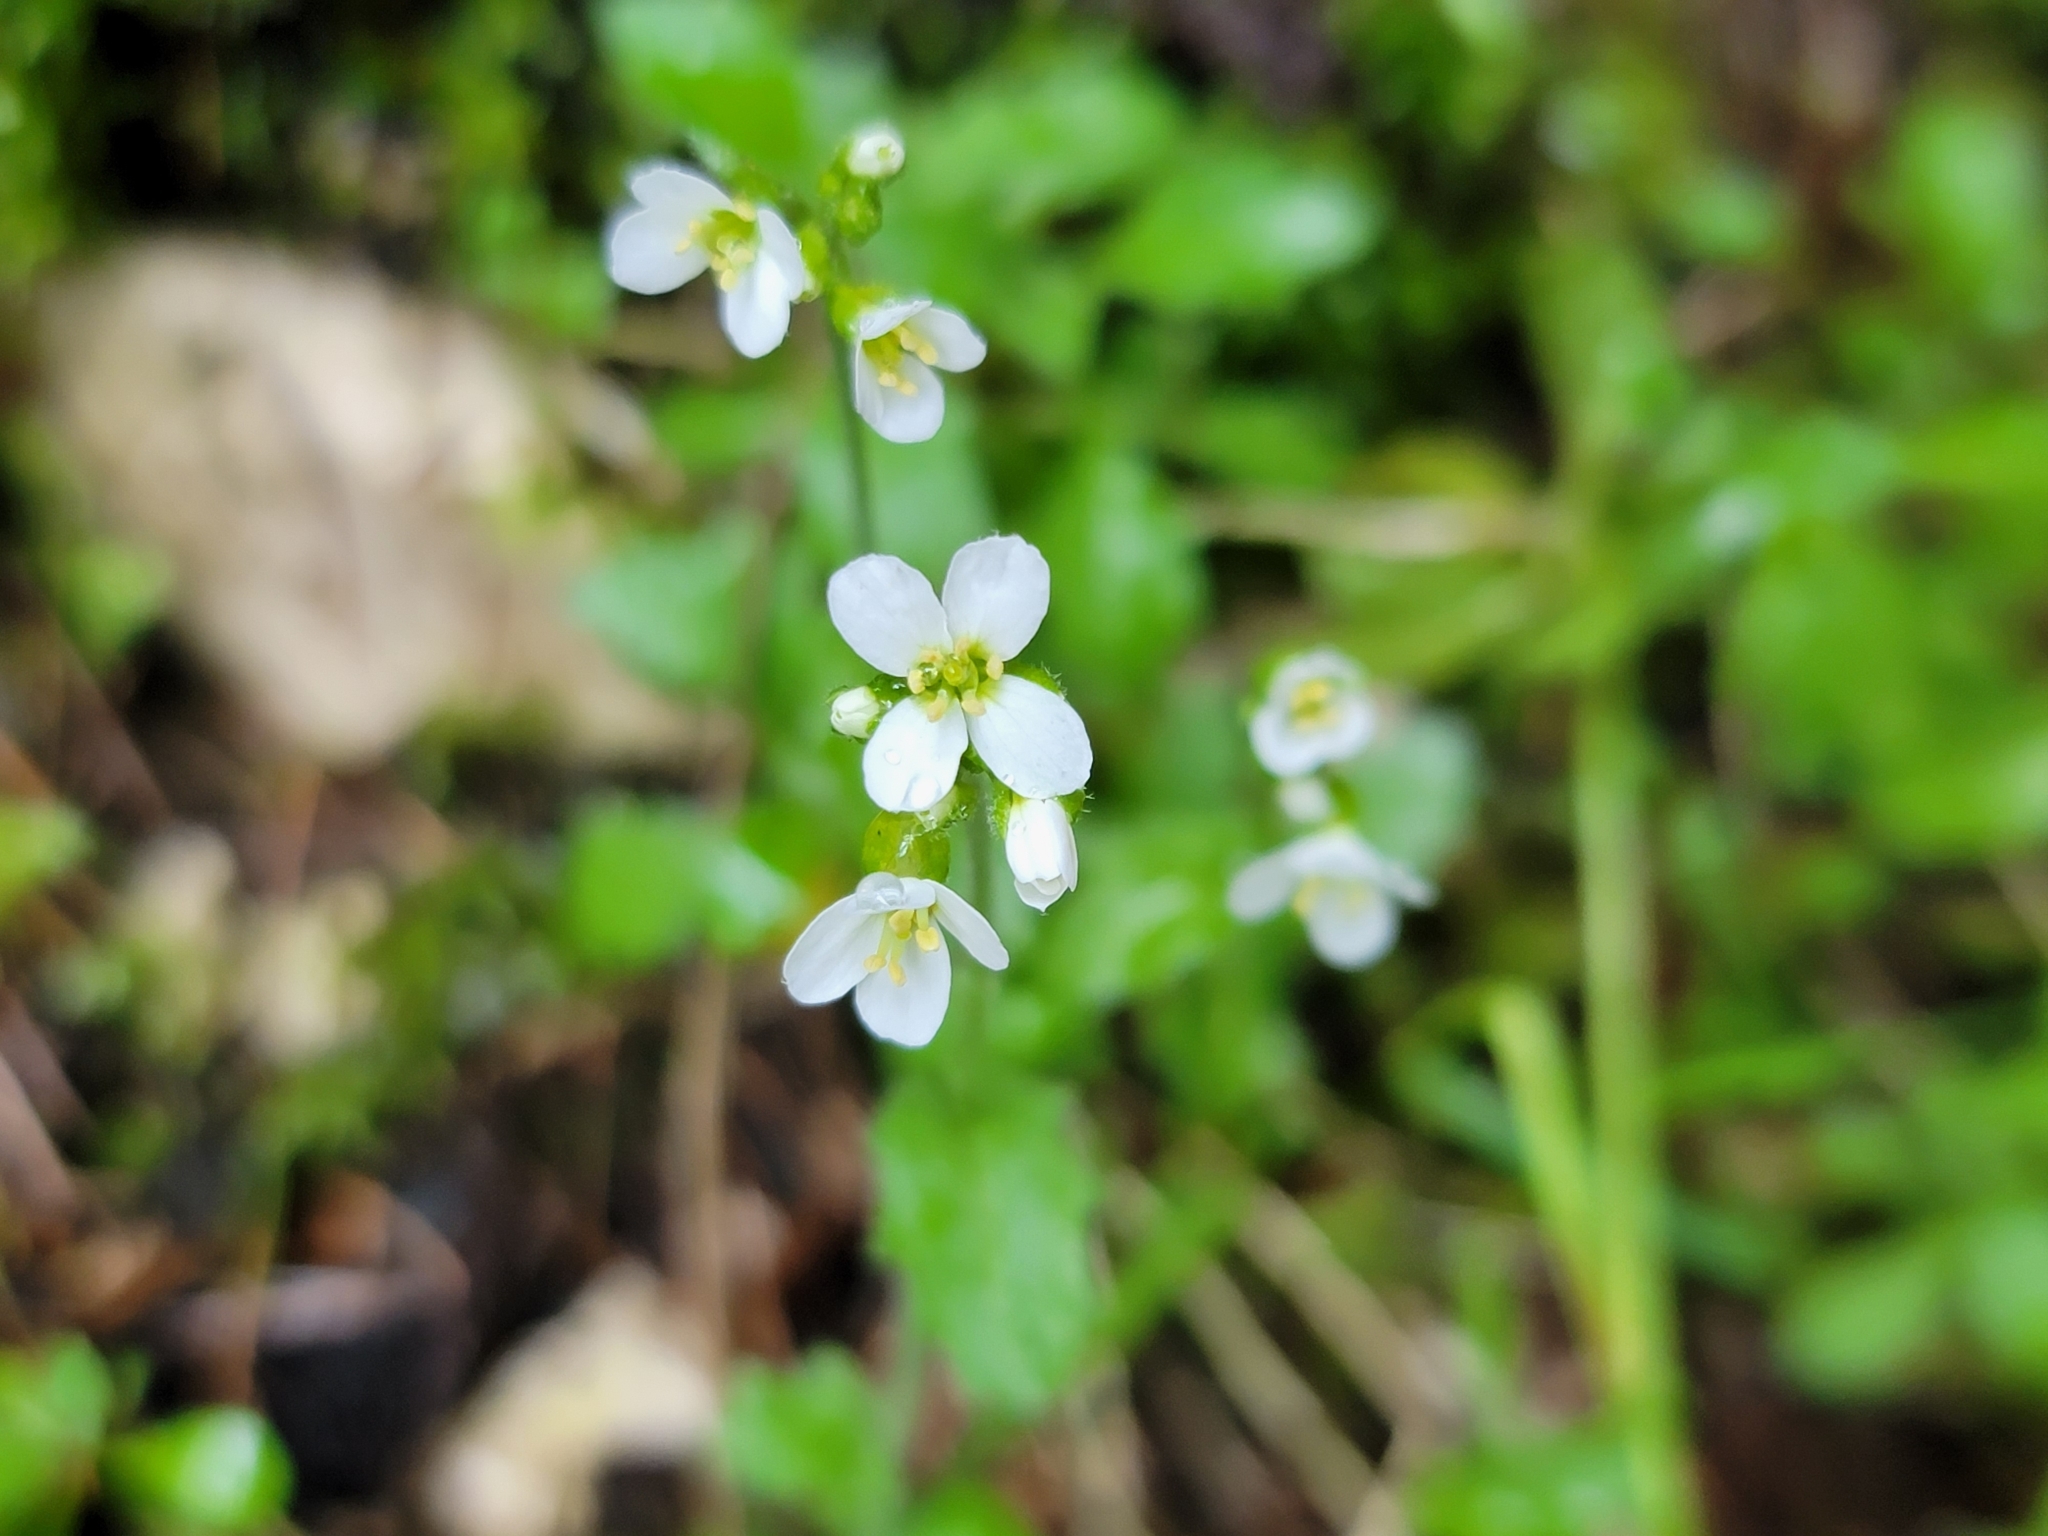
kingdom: Plantae
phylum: Tracheophyta
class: Magnoliopsida
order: Brassicales
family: Brassicaceae
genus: Arabis
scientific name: Arabis alpina
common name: Alpine rock-cress
